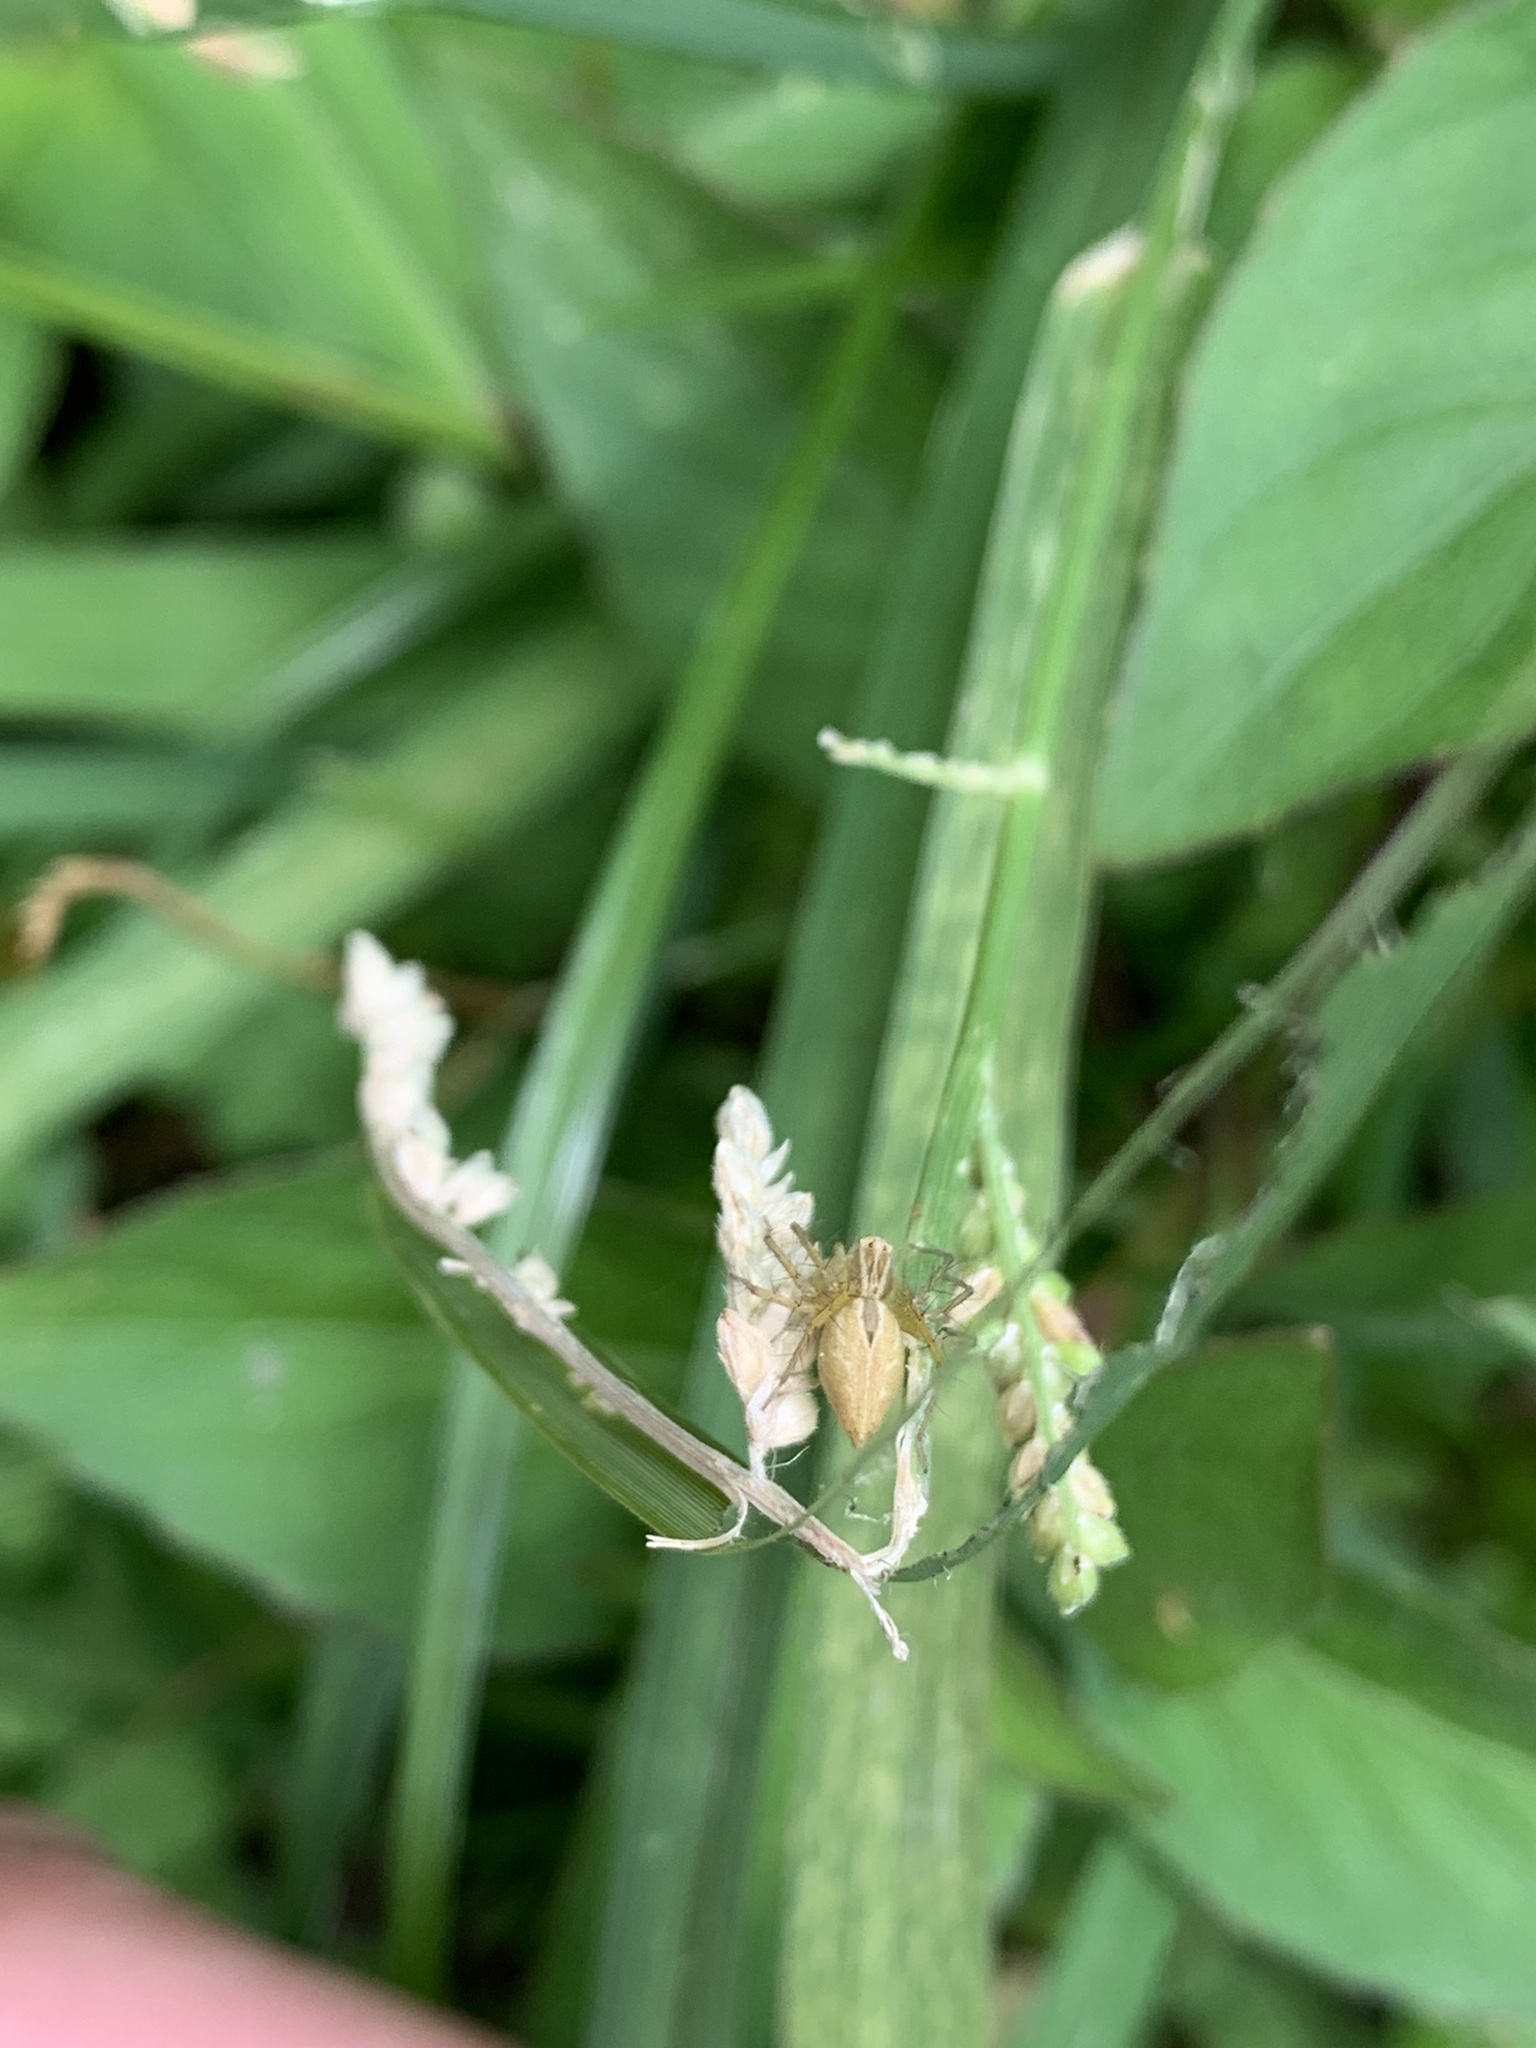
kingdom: Animalia
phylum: Arthropoda
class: Arachnida
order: Araneae
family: Oxyopidae
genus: Oxyopes
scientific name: Oxyopes salticus
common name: Lynx spiders
